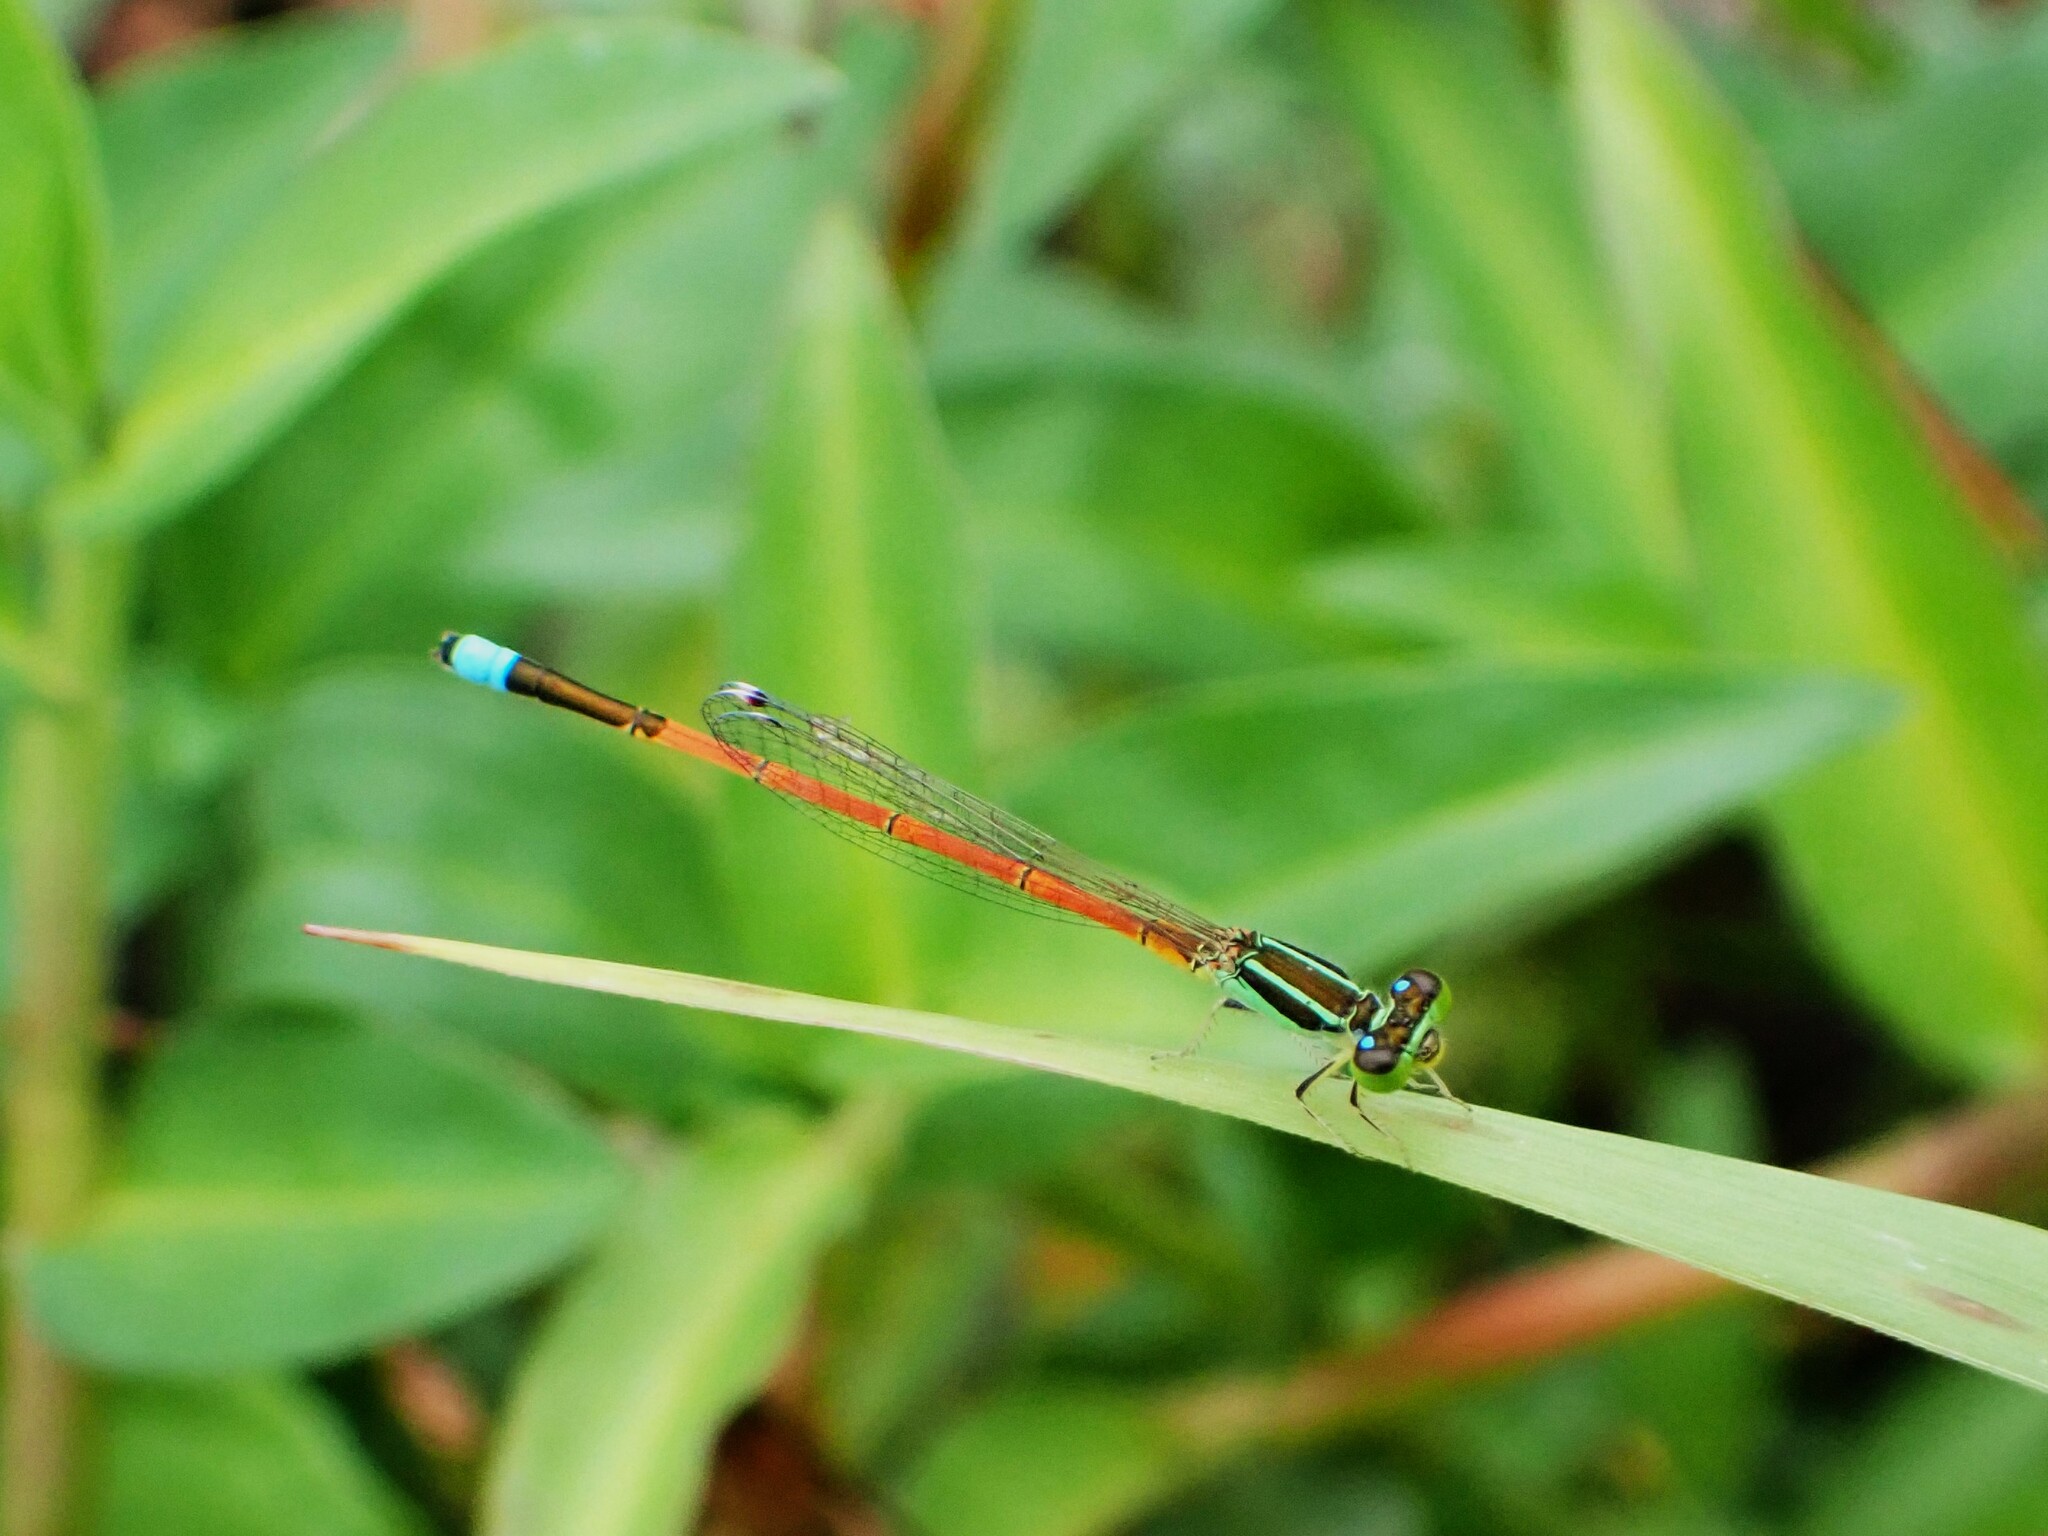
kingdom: Animalia
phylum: Arthropoda
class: Insecta
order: Odonata
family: Coenagrionidae
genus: Ischnura
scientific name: Ischnura aurora
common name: Gossamer damselfly
